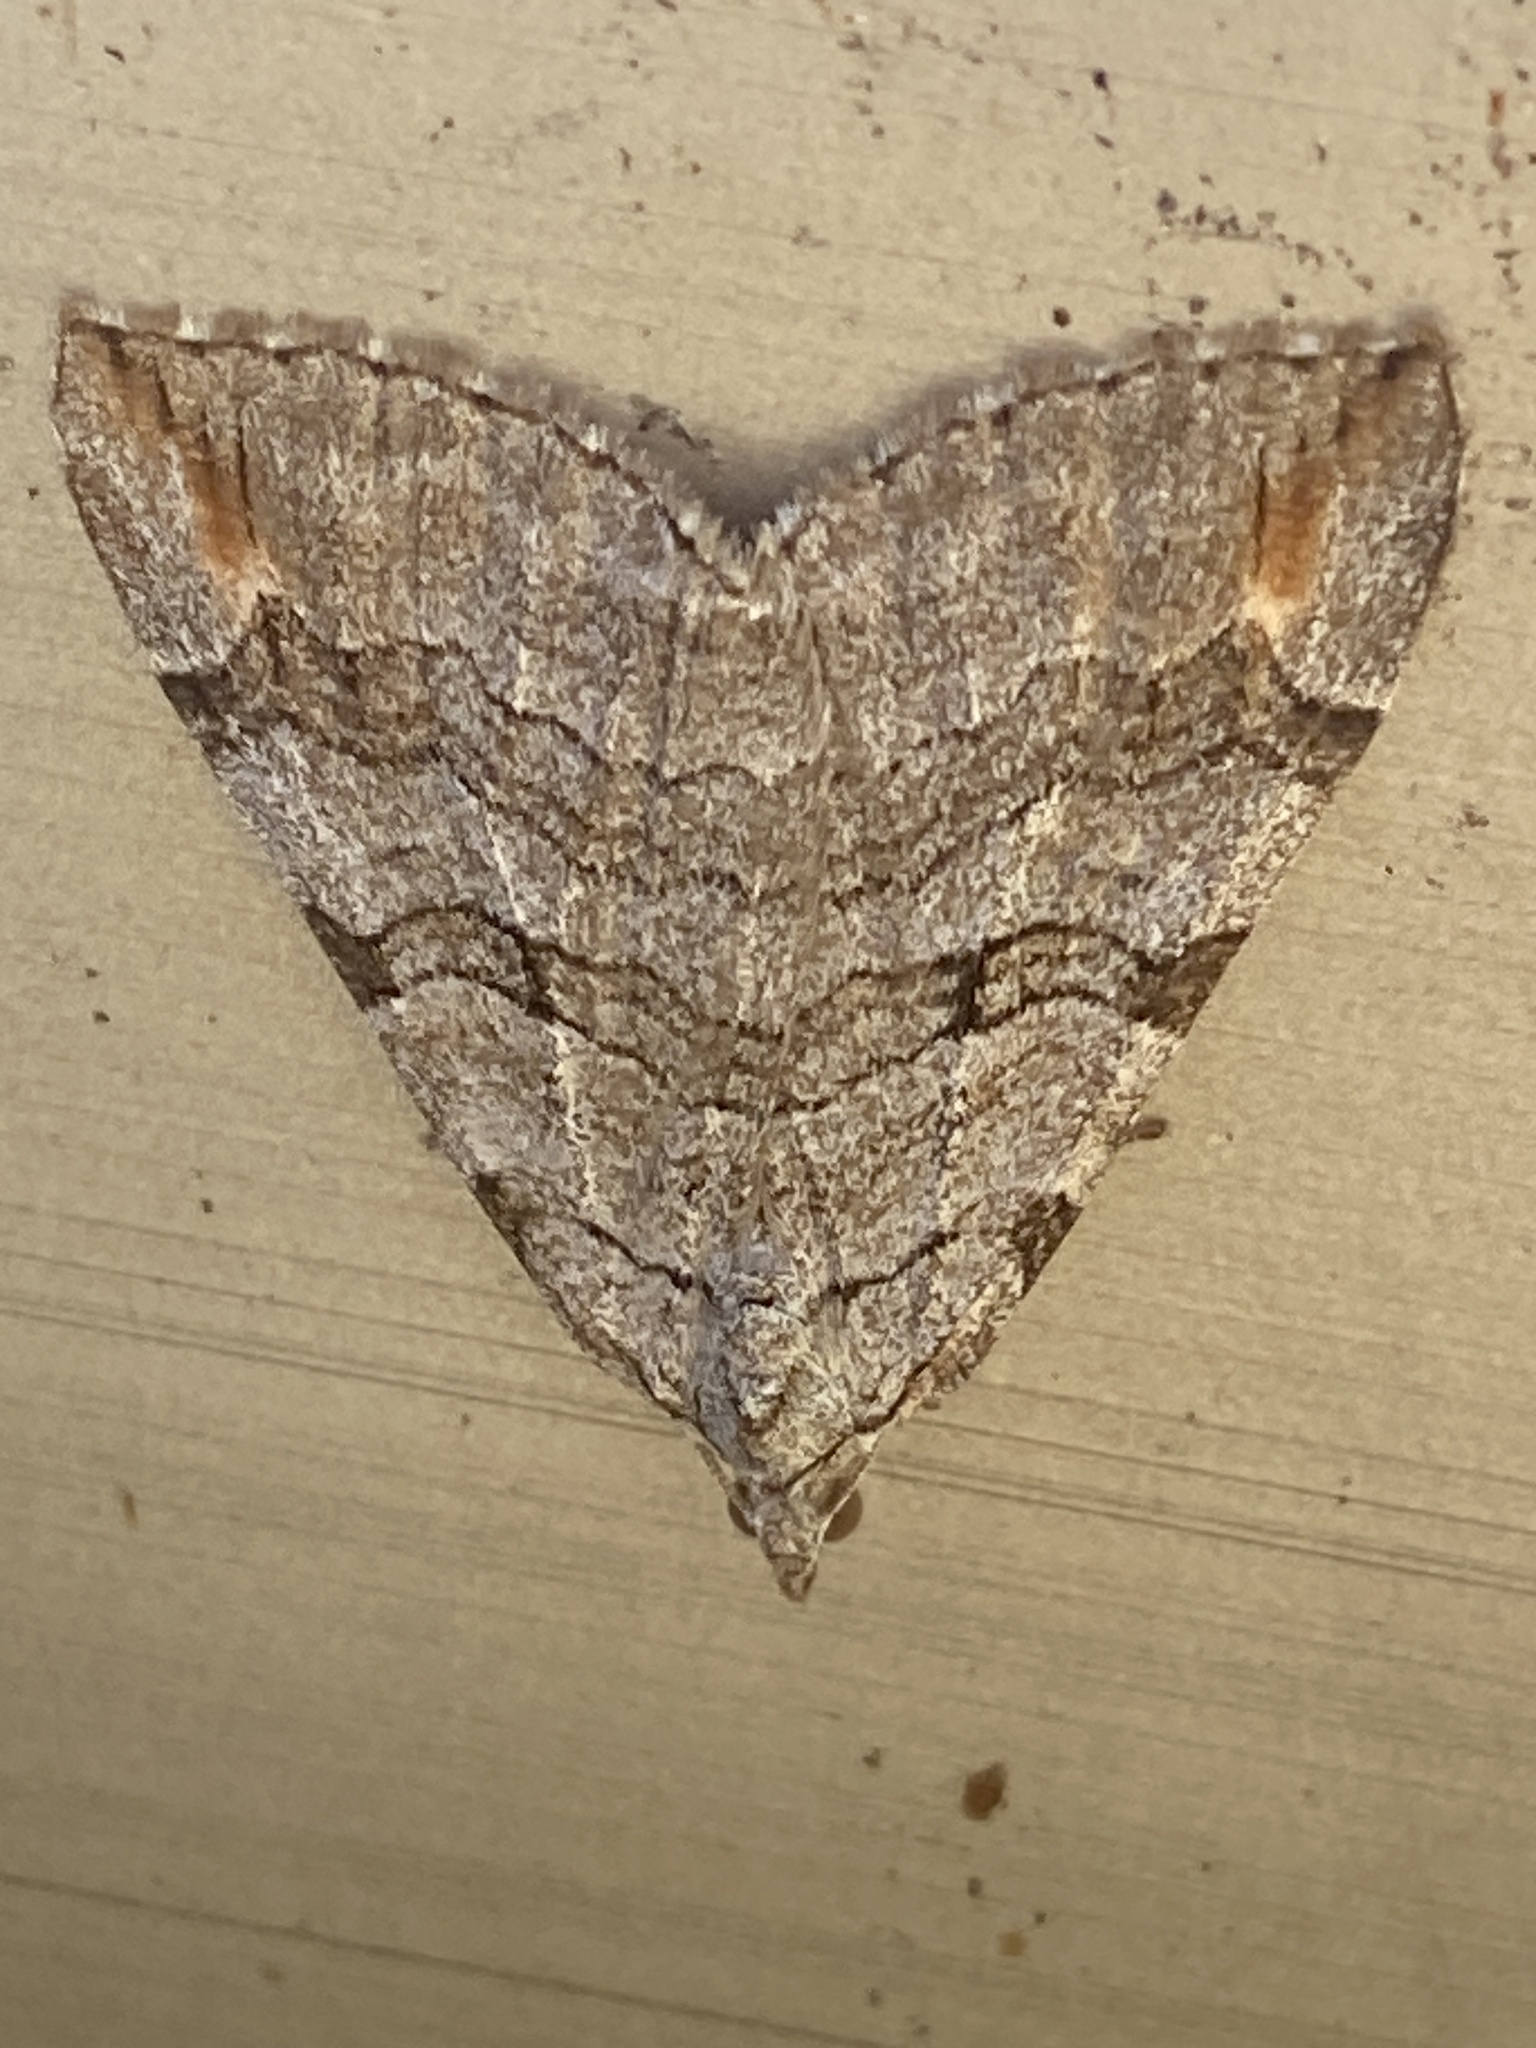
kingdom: Animalia
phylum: Arthropoda
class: Insecta
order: Lepidoptera
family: Geometridae
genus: Aplocera
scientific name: Aplocera plagiata
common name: Treble-bar
